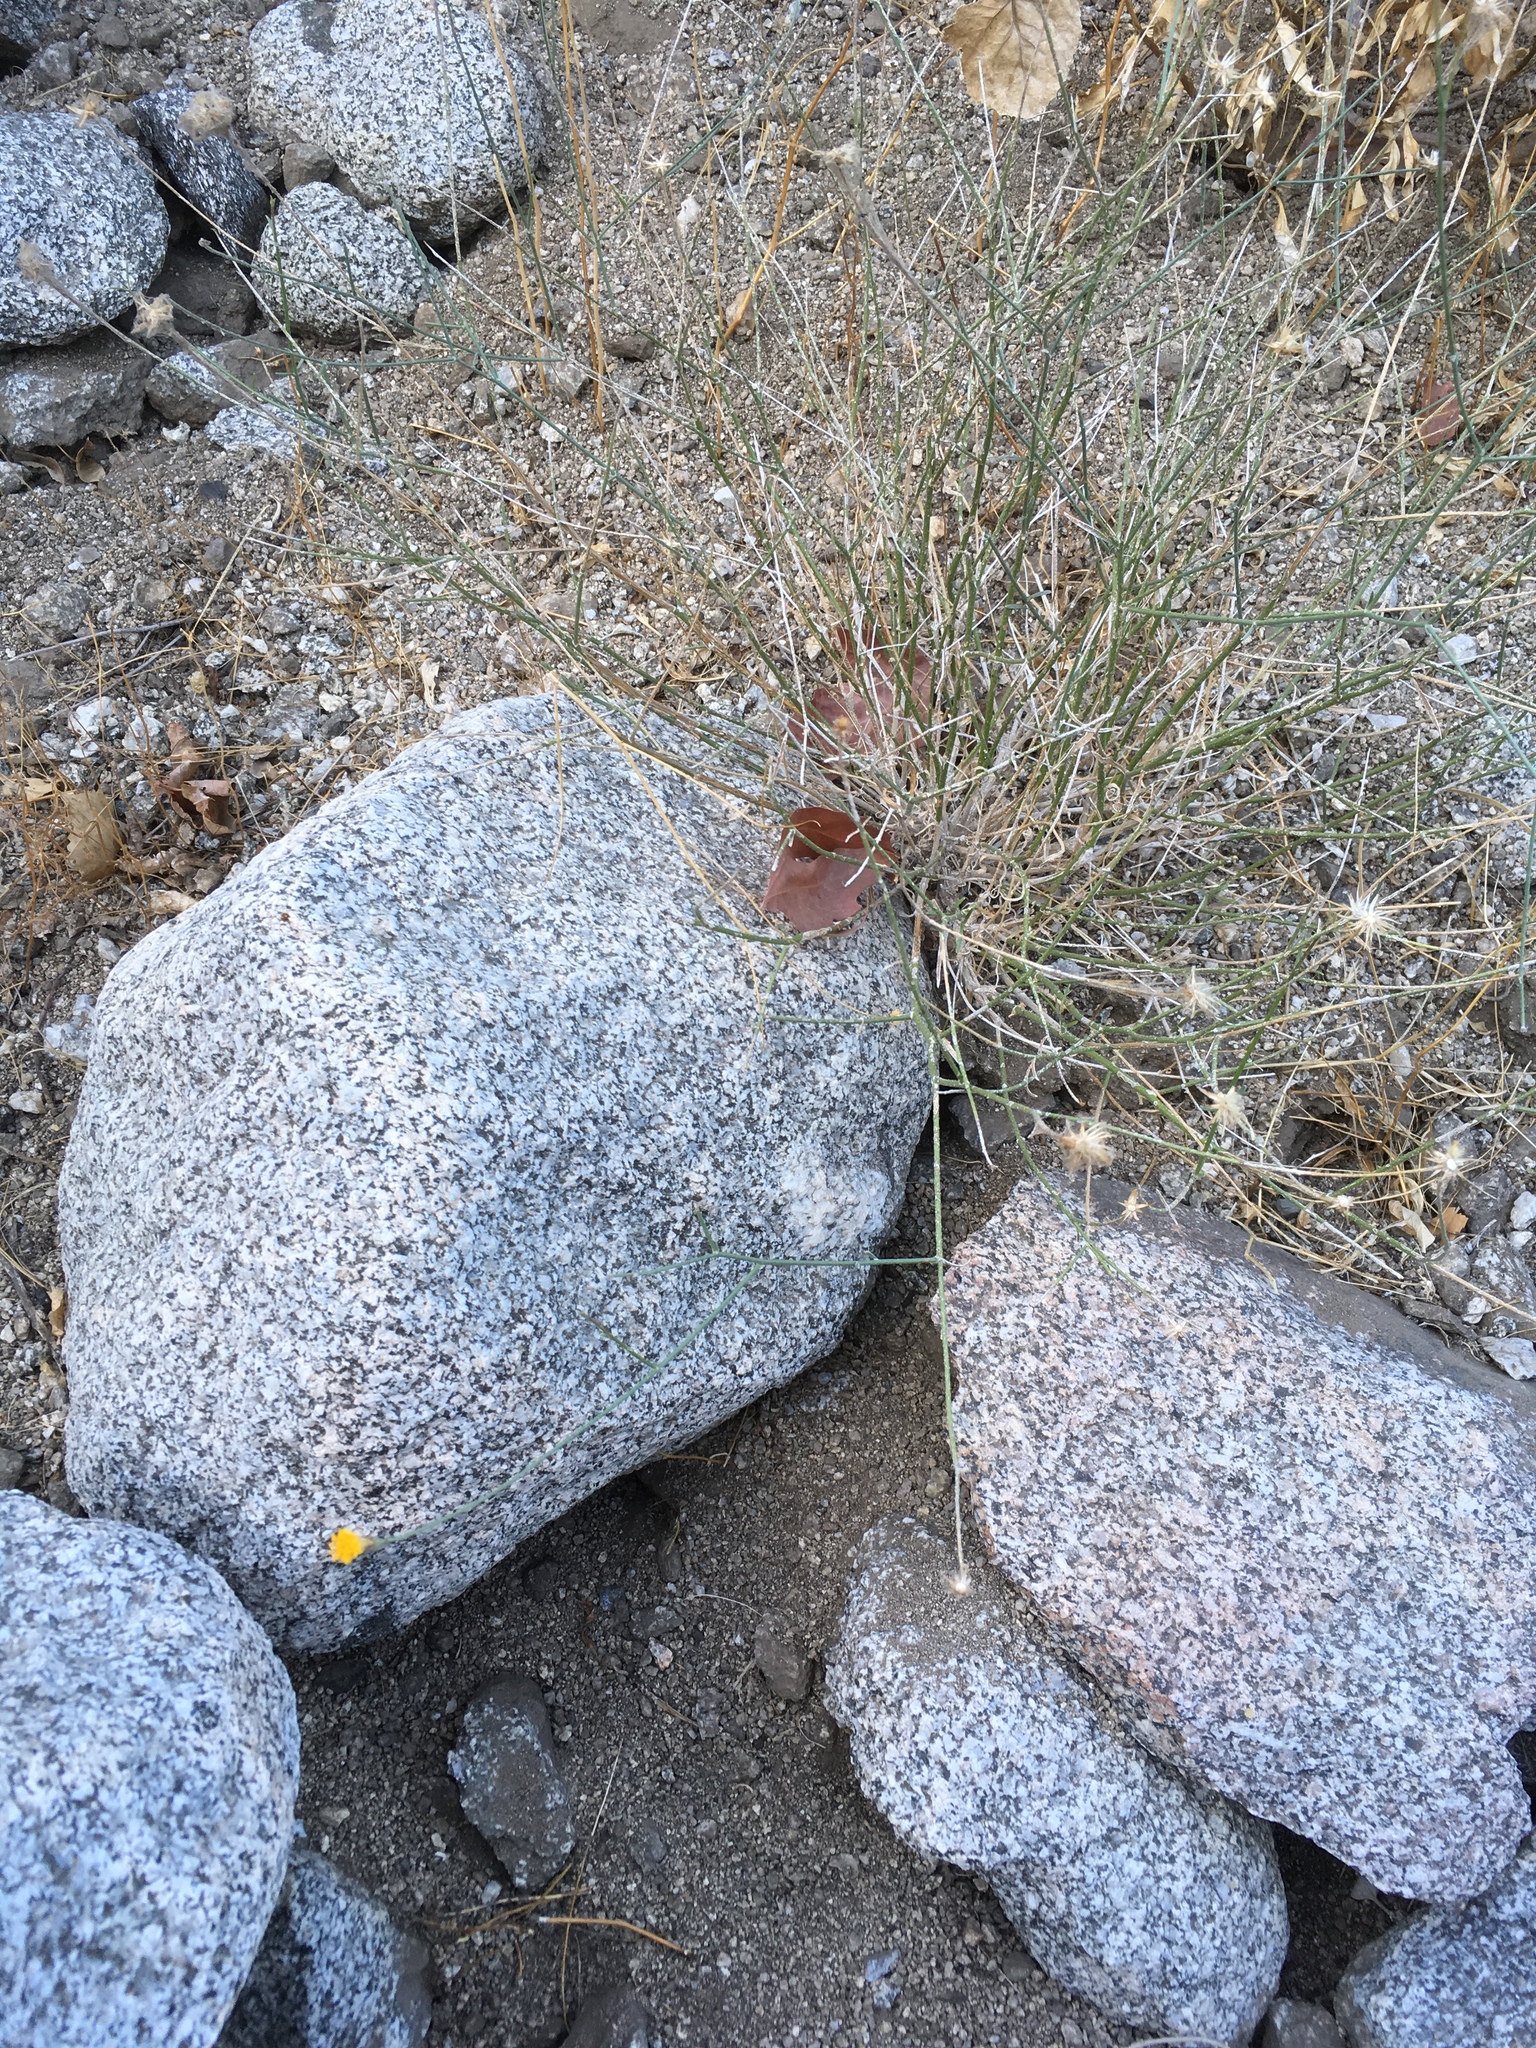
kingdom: Plantae
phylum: Tracheophyta
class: Magnoliopsida
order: Asterales
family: Asteraceae
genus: Bebbia
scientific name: Bebbia juncea
